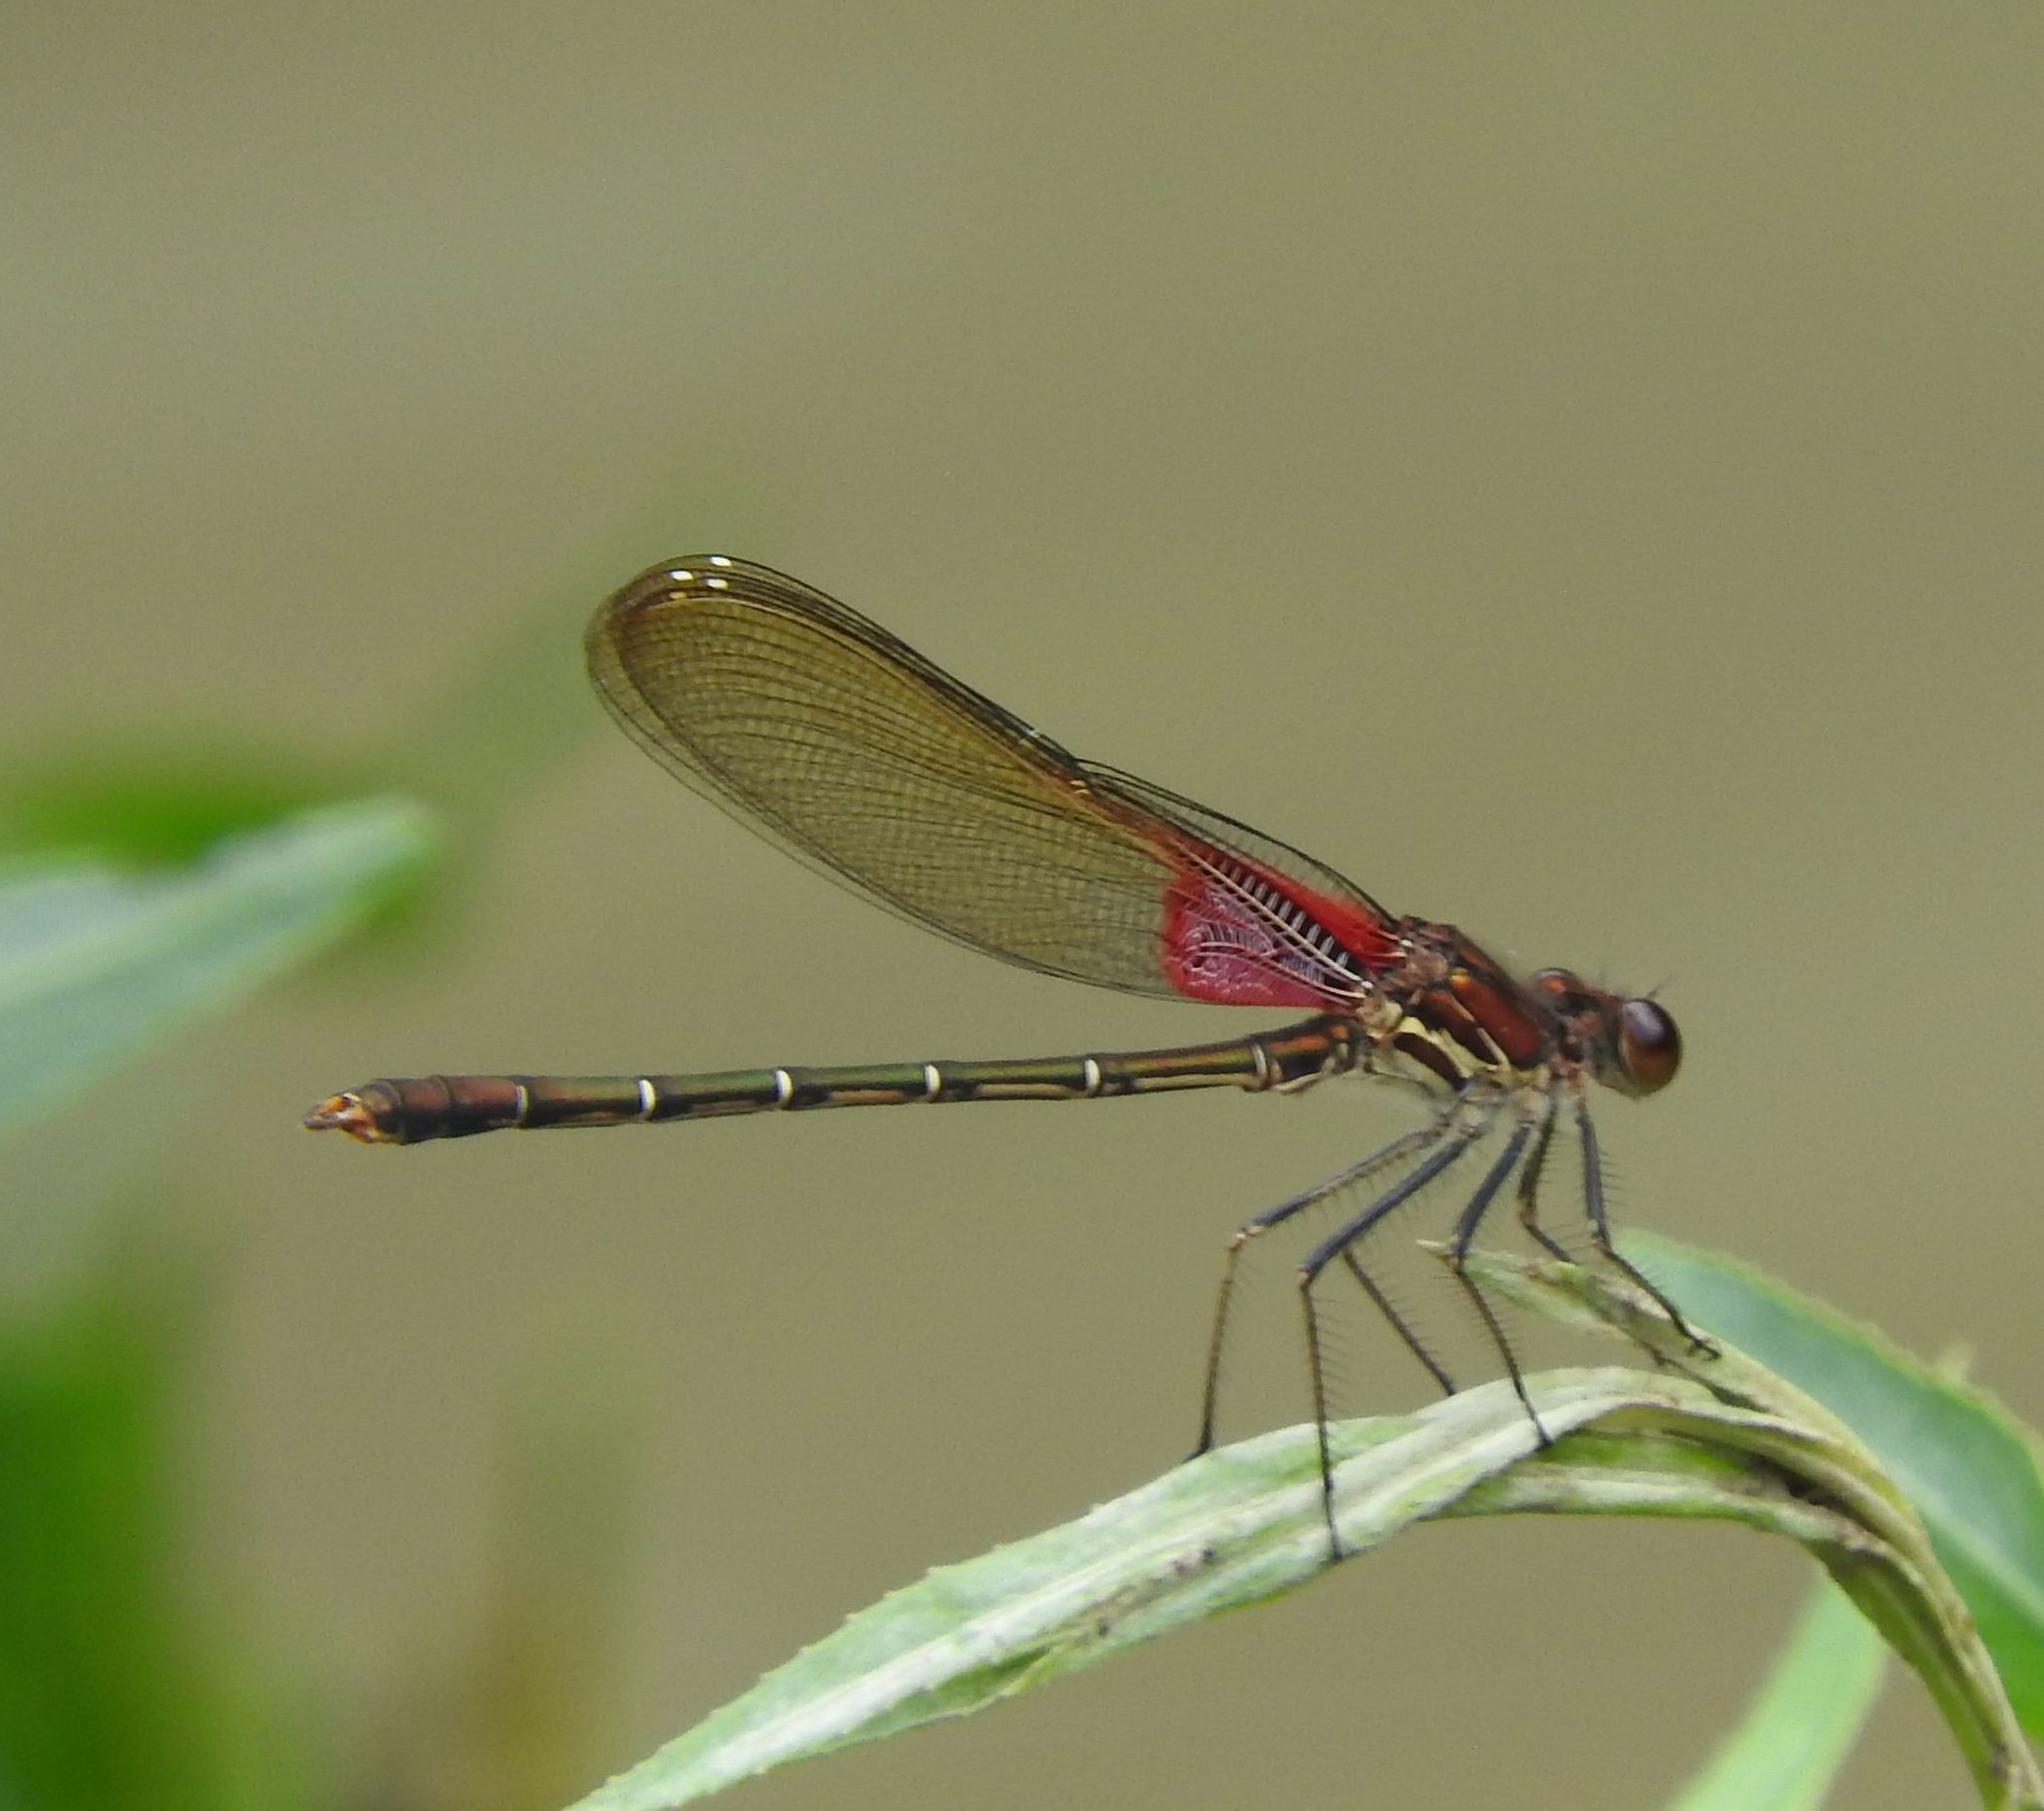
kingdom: Animalia
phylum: Arthropoda
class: Insecta
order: Odonata
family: Calopterygidae
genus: Hetaerina
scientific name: Hetaerina americana
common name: American rubyspot
